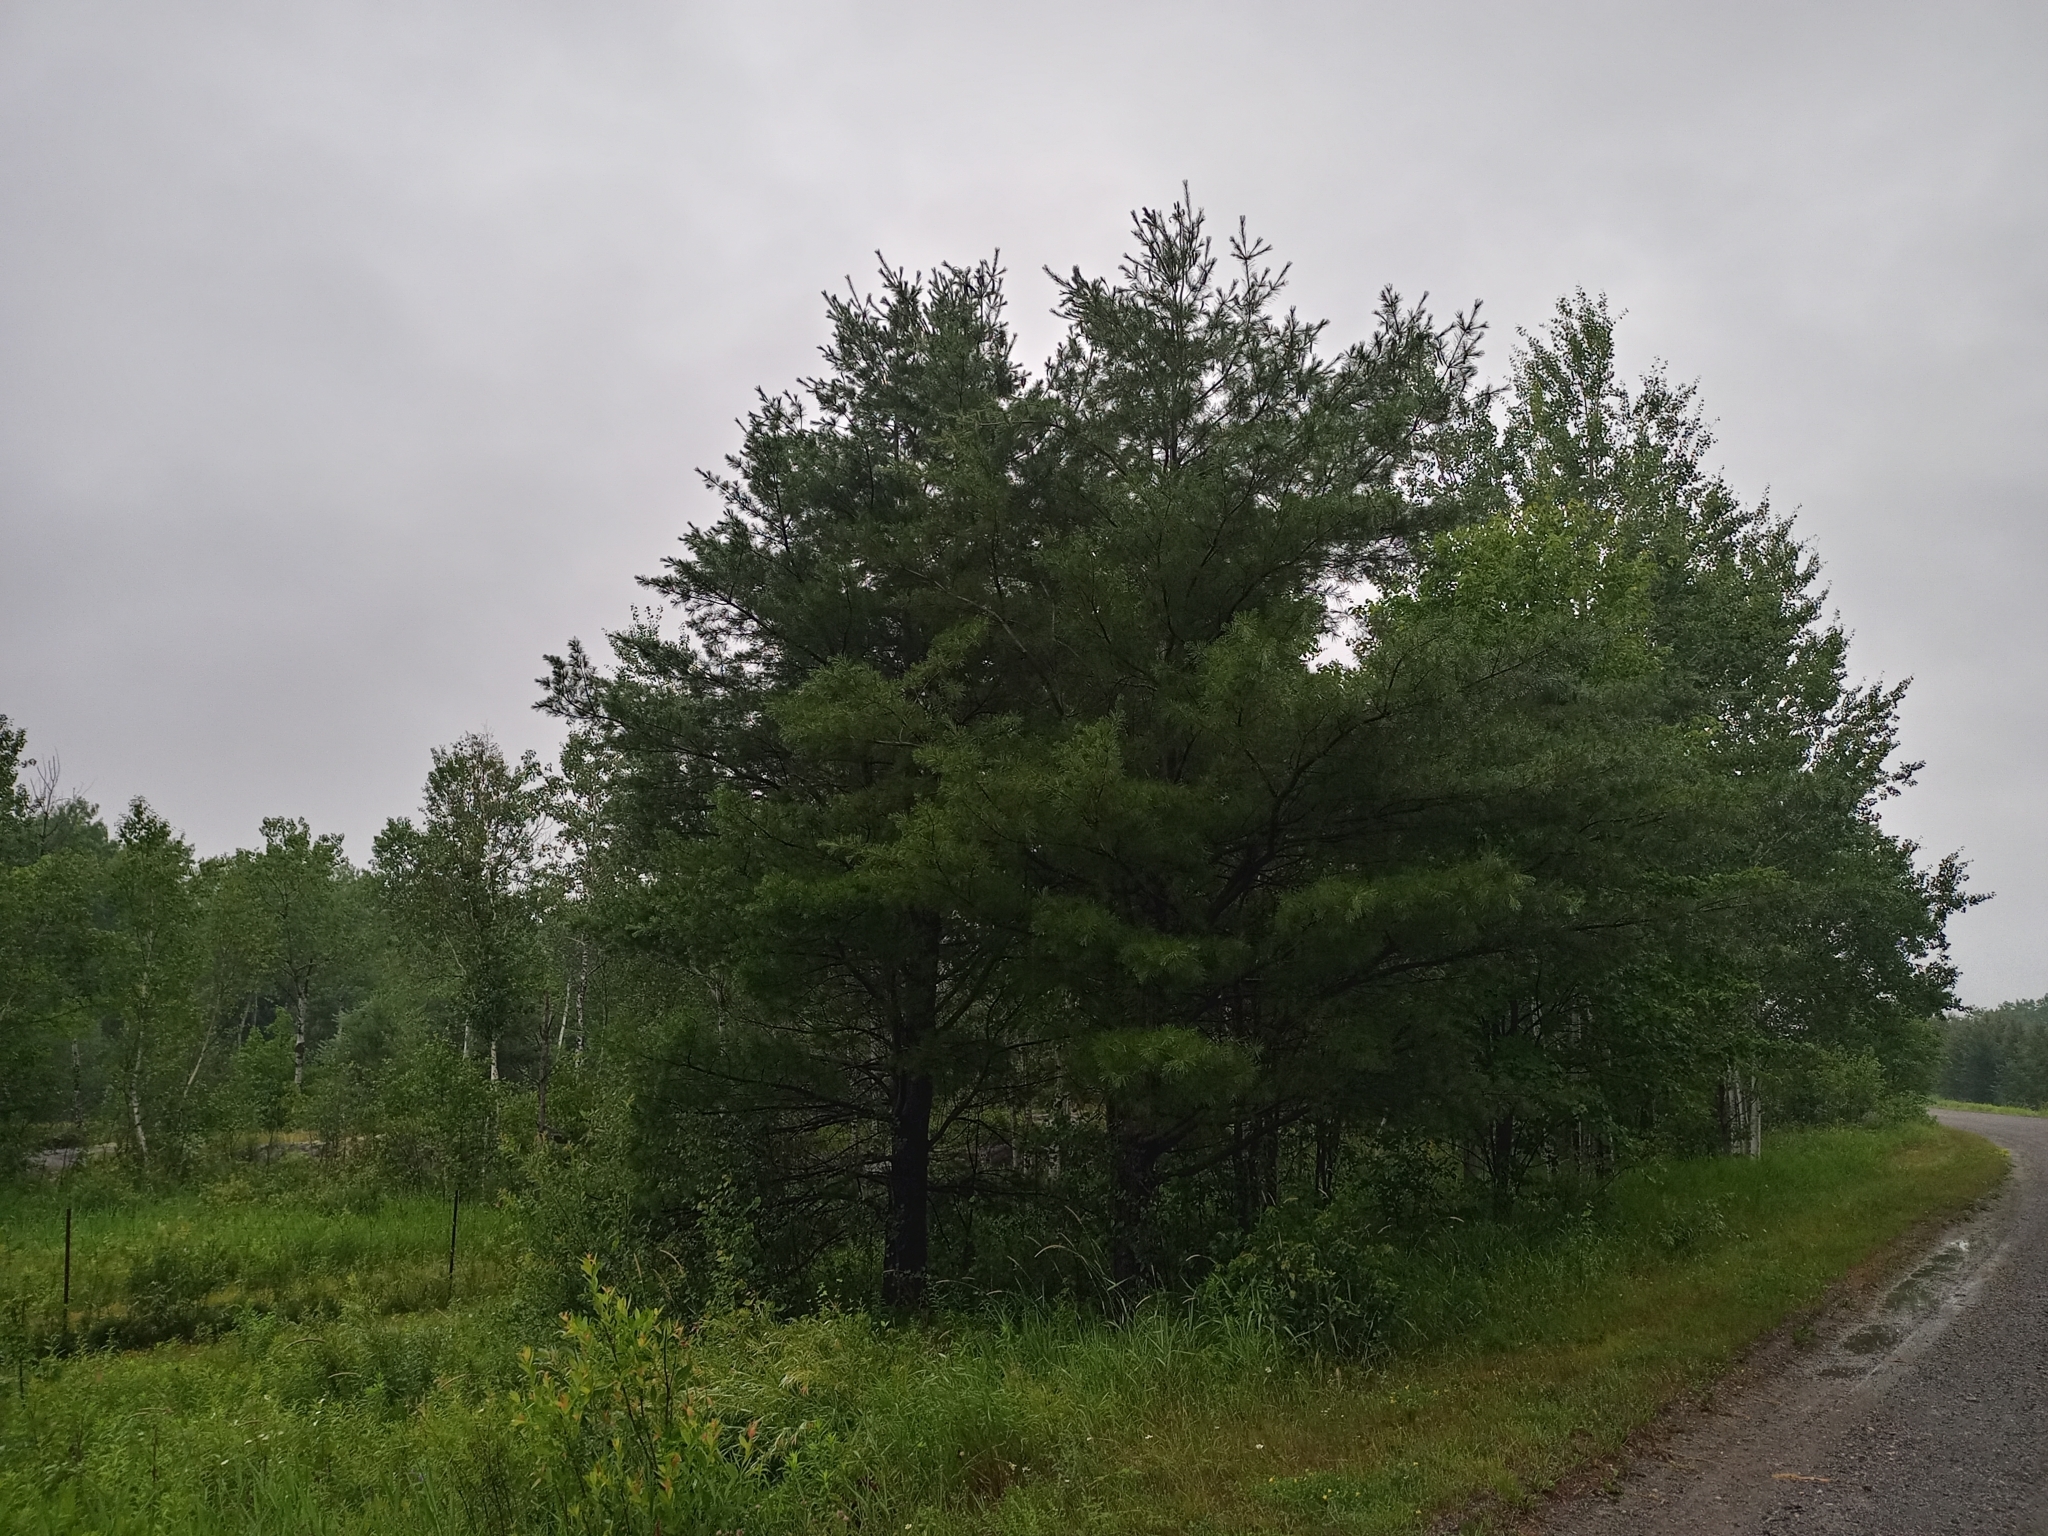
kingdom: Plantae
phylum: Tracheophyta
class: Pinopsida
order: Pinales
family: Pinaceae
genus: Pinus
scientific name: Pinus strobus
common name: Weymouth pine
